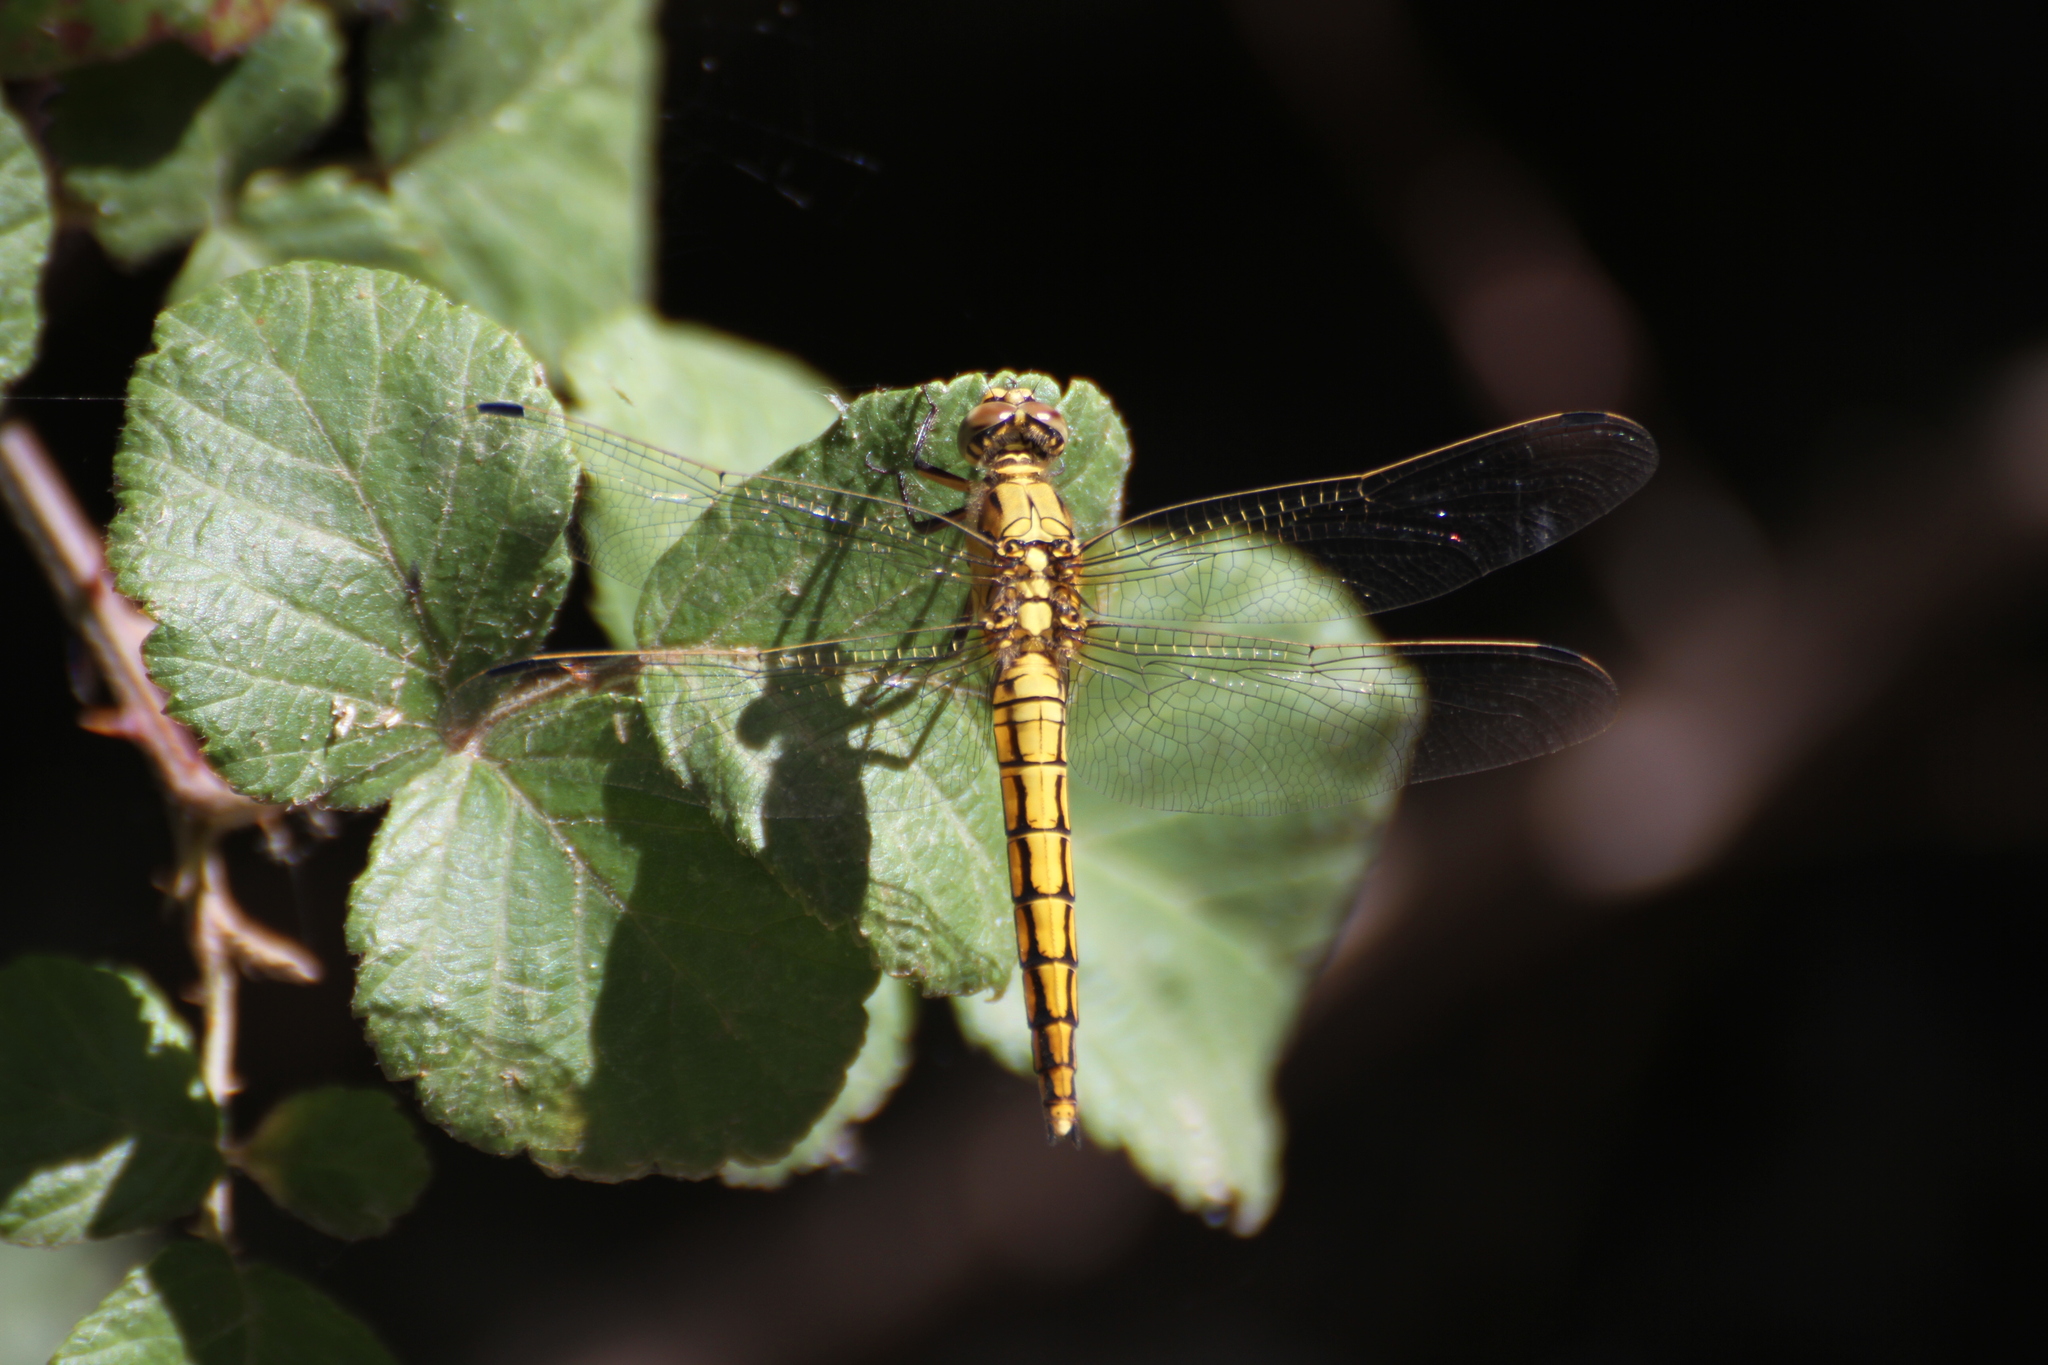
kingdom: Animalia
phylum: Arthropoda
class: Insecta
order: Odonata
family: Libellulidae
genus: Orthetrum
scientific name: Orthetrum cancellatum
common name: Black-tailed skimmer
